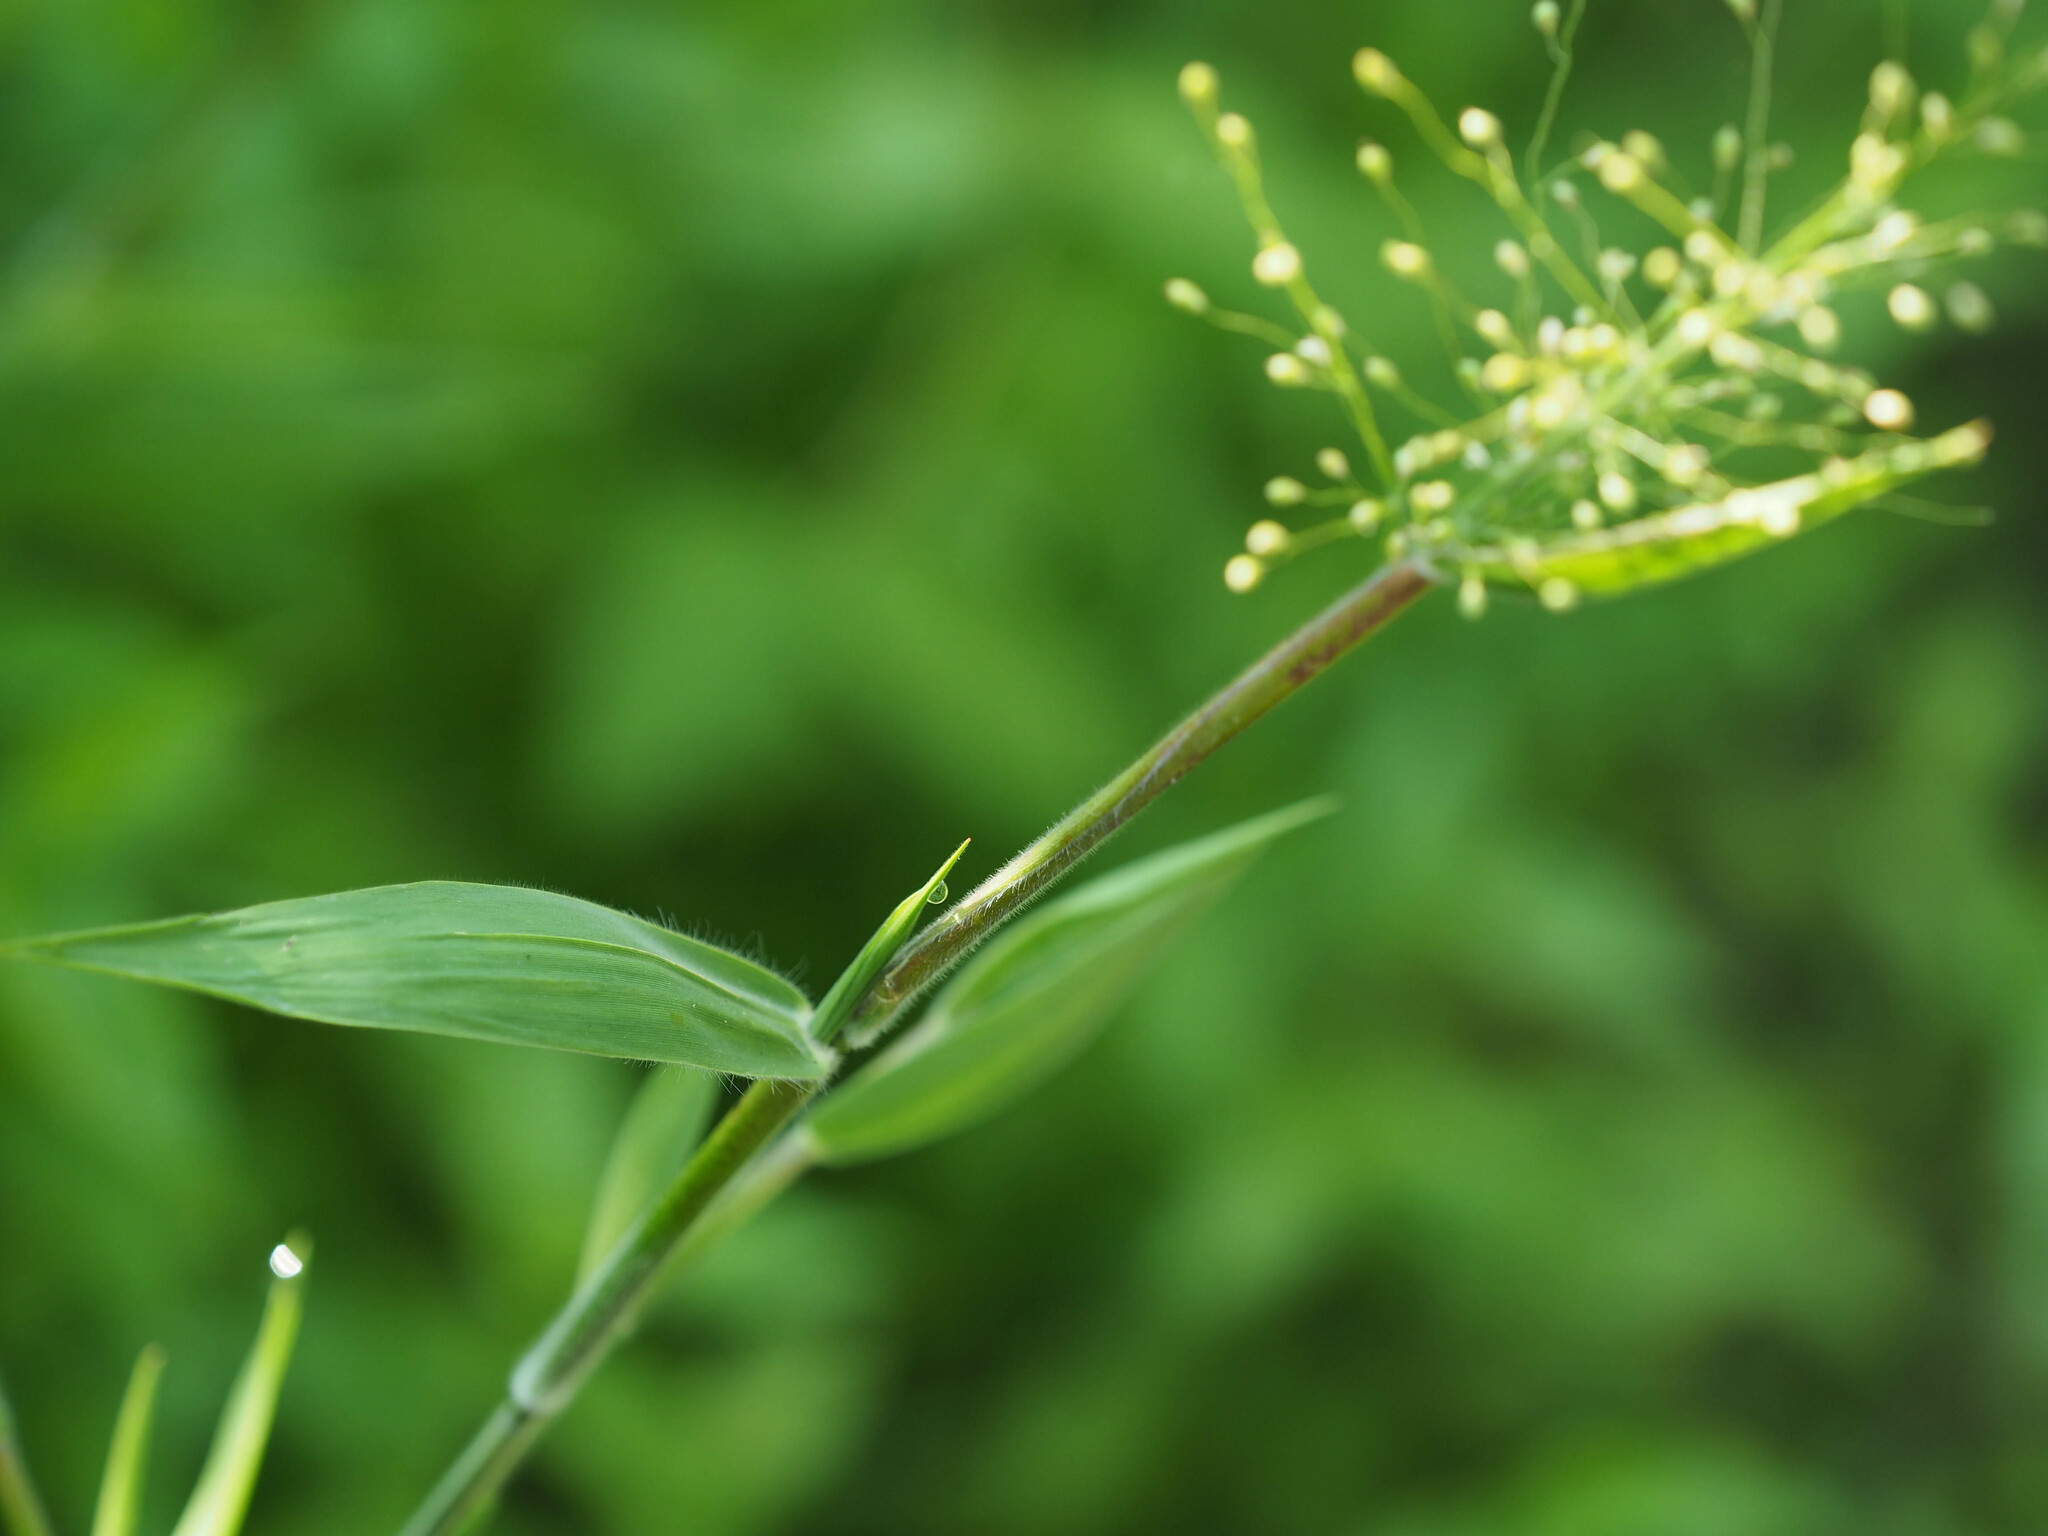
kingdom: Plantae
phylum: Tracheophyta
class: Liliopsida
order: Poales
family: Poaceae
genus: Dichanthelium
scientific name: Dichanthelium scoparium
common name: Velvety panic grass
